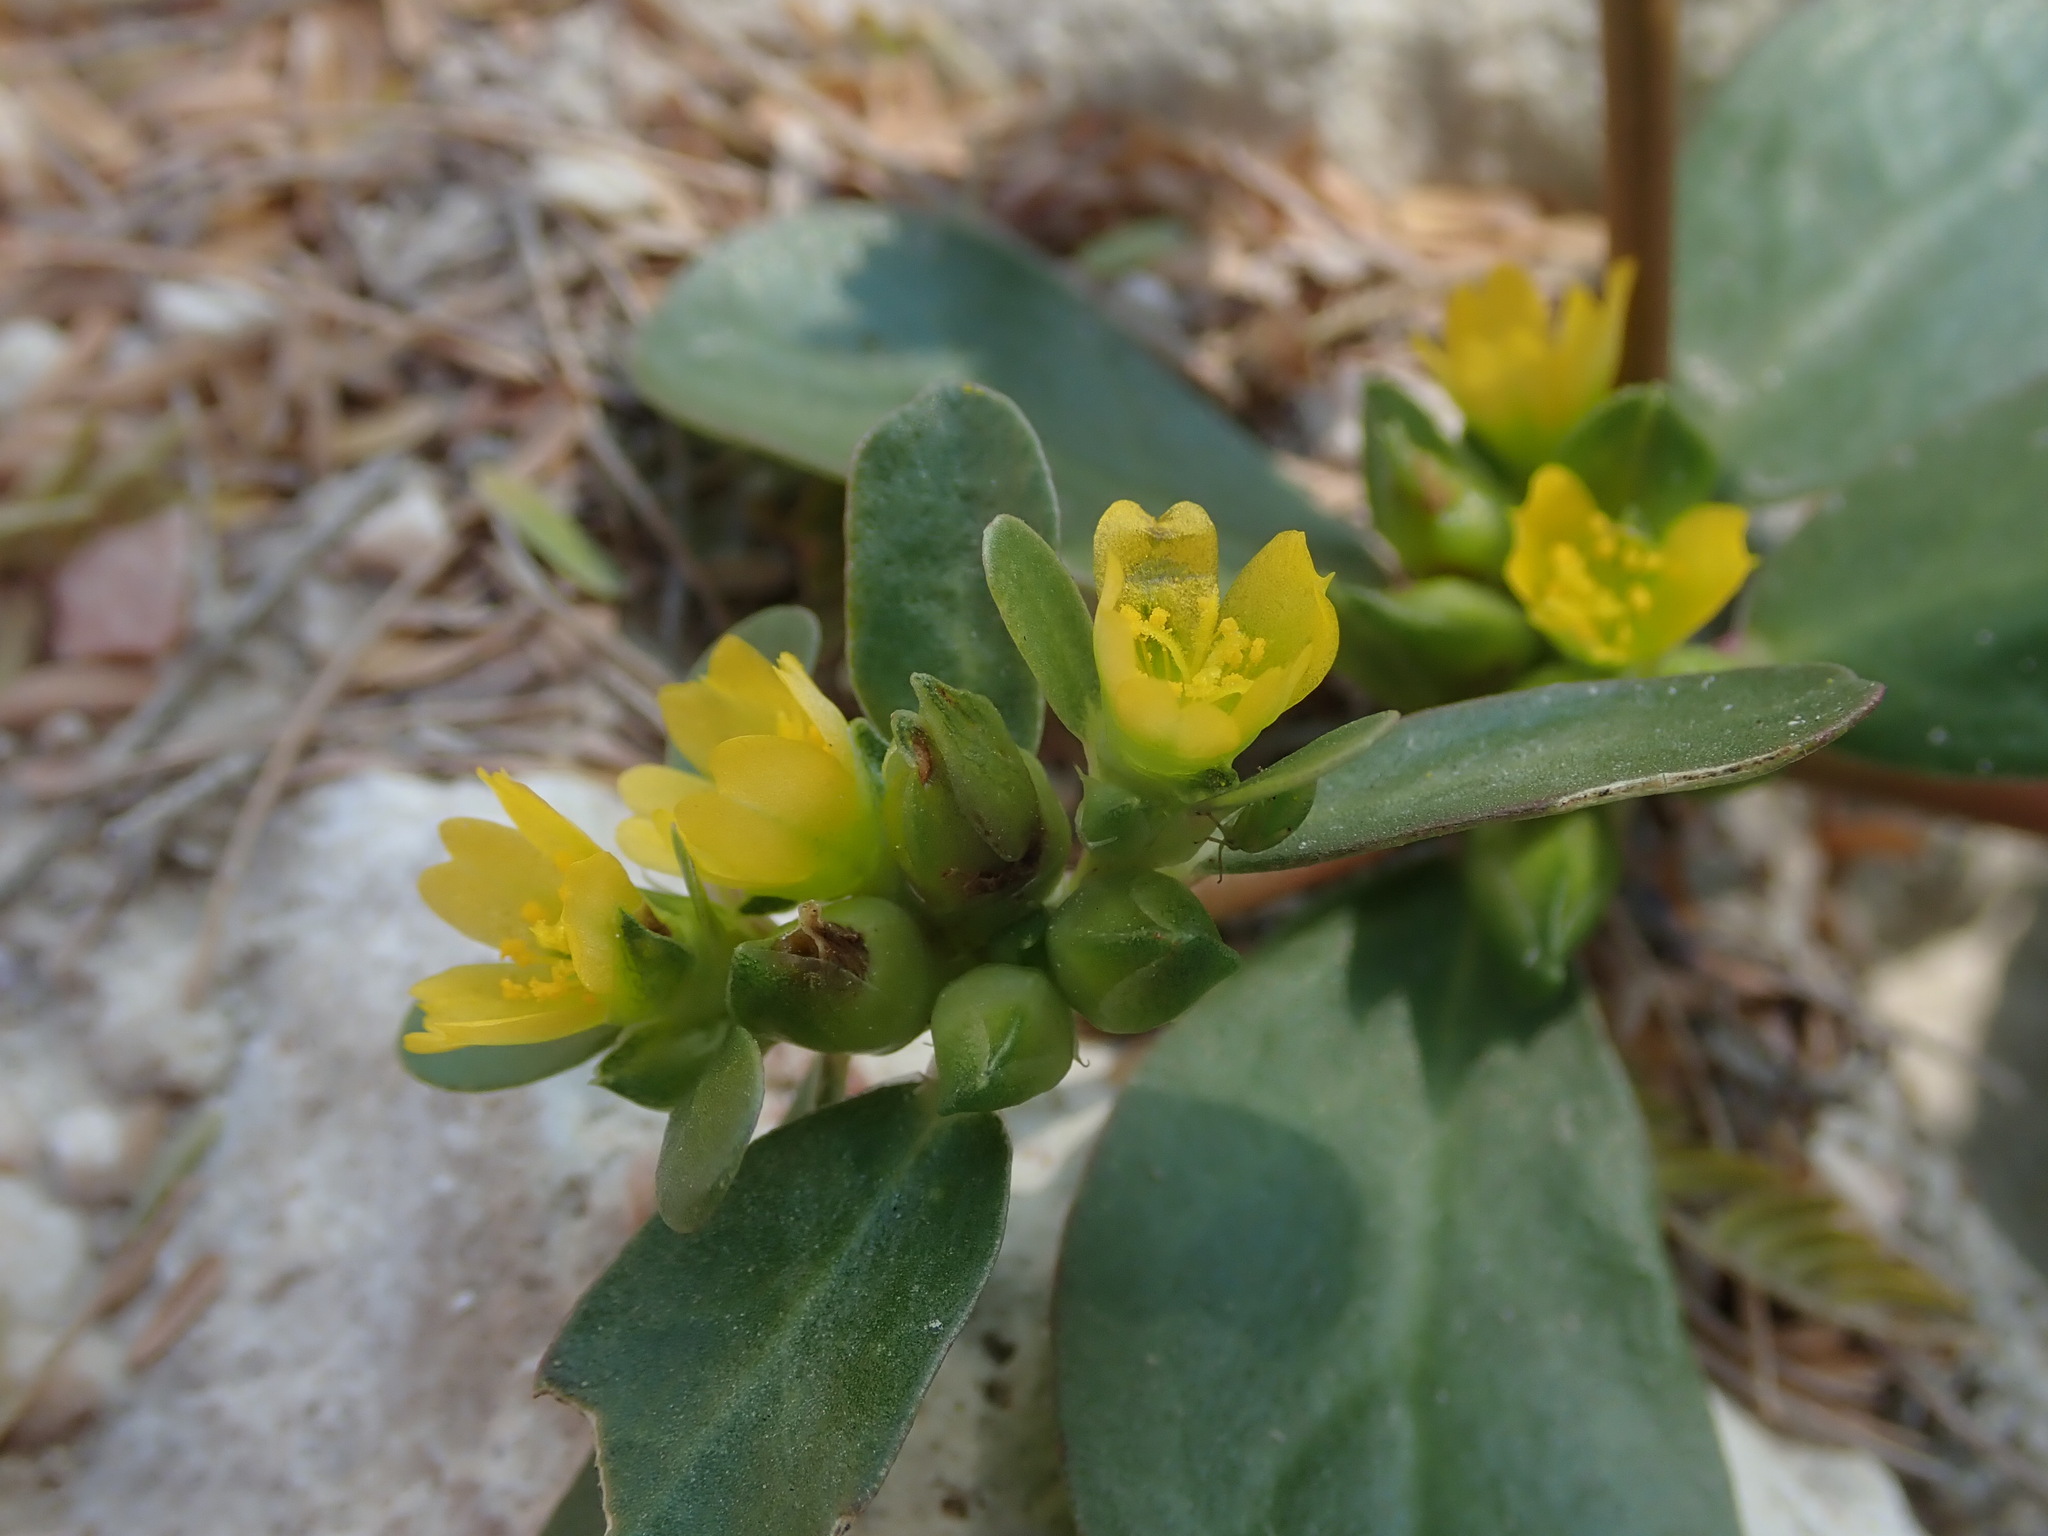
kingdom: Plantae
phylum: Tracheophyta
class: Magnoliopsida
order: Caryophyllales
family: Portulacaceae
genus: Portulaca
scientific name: Portulaca oleracea
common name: Common purslane
